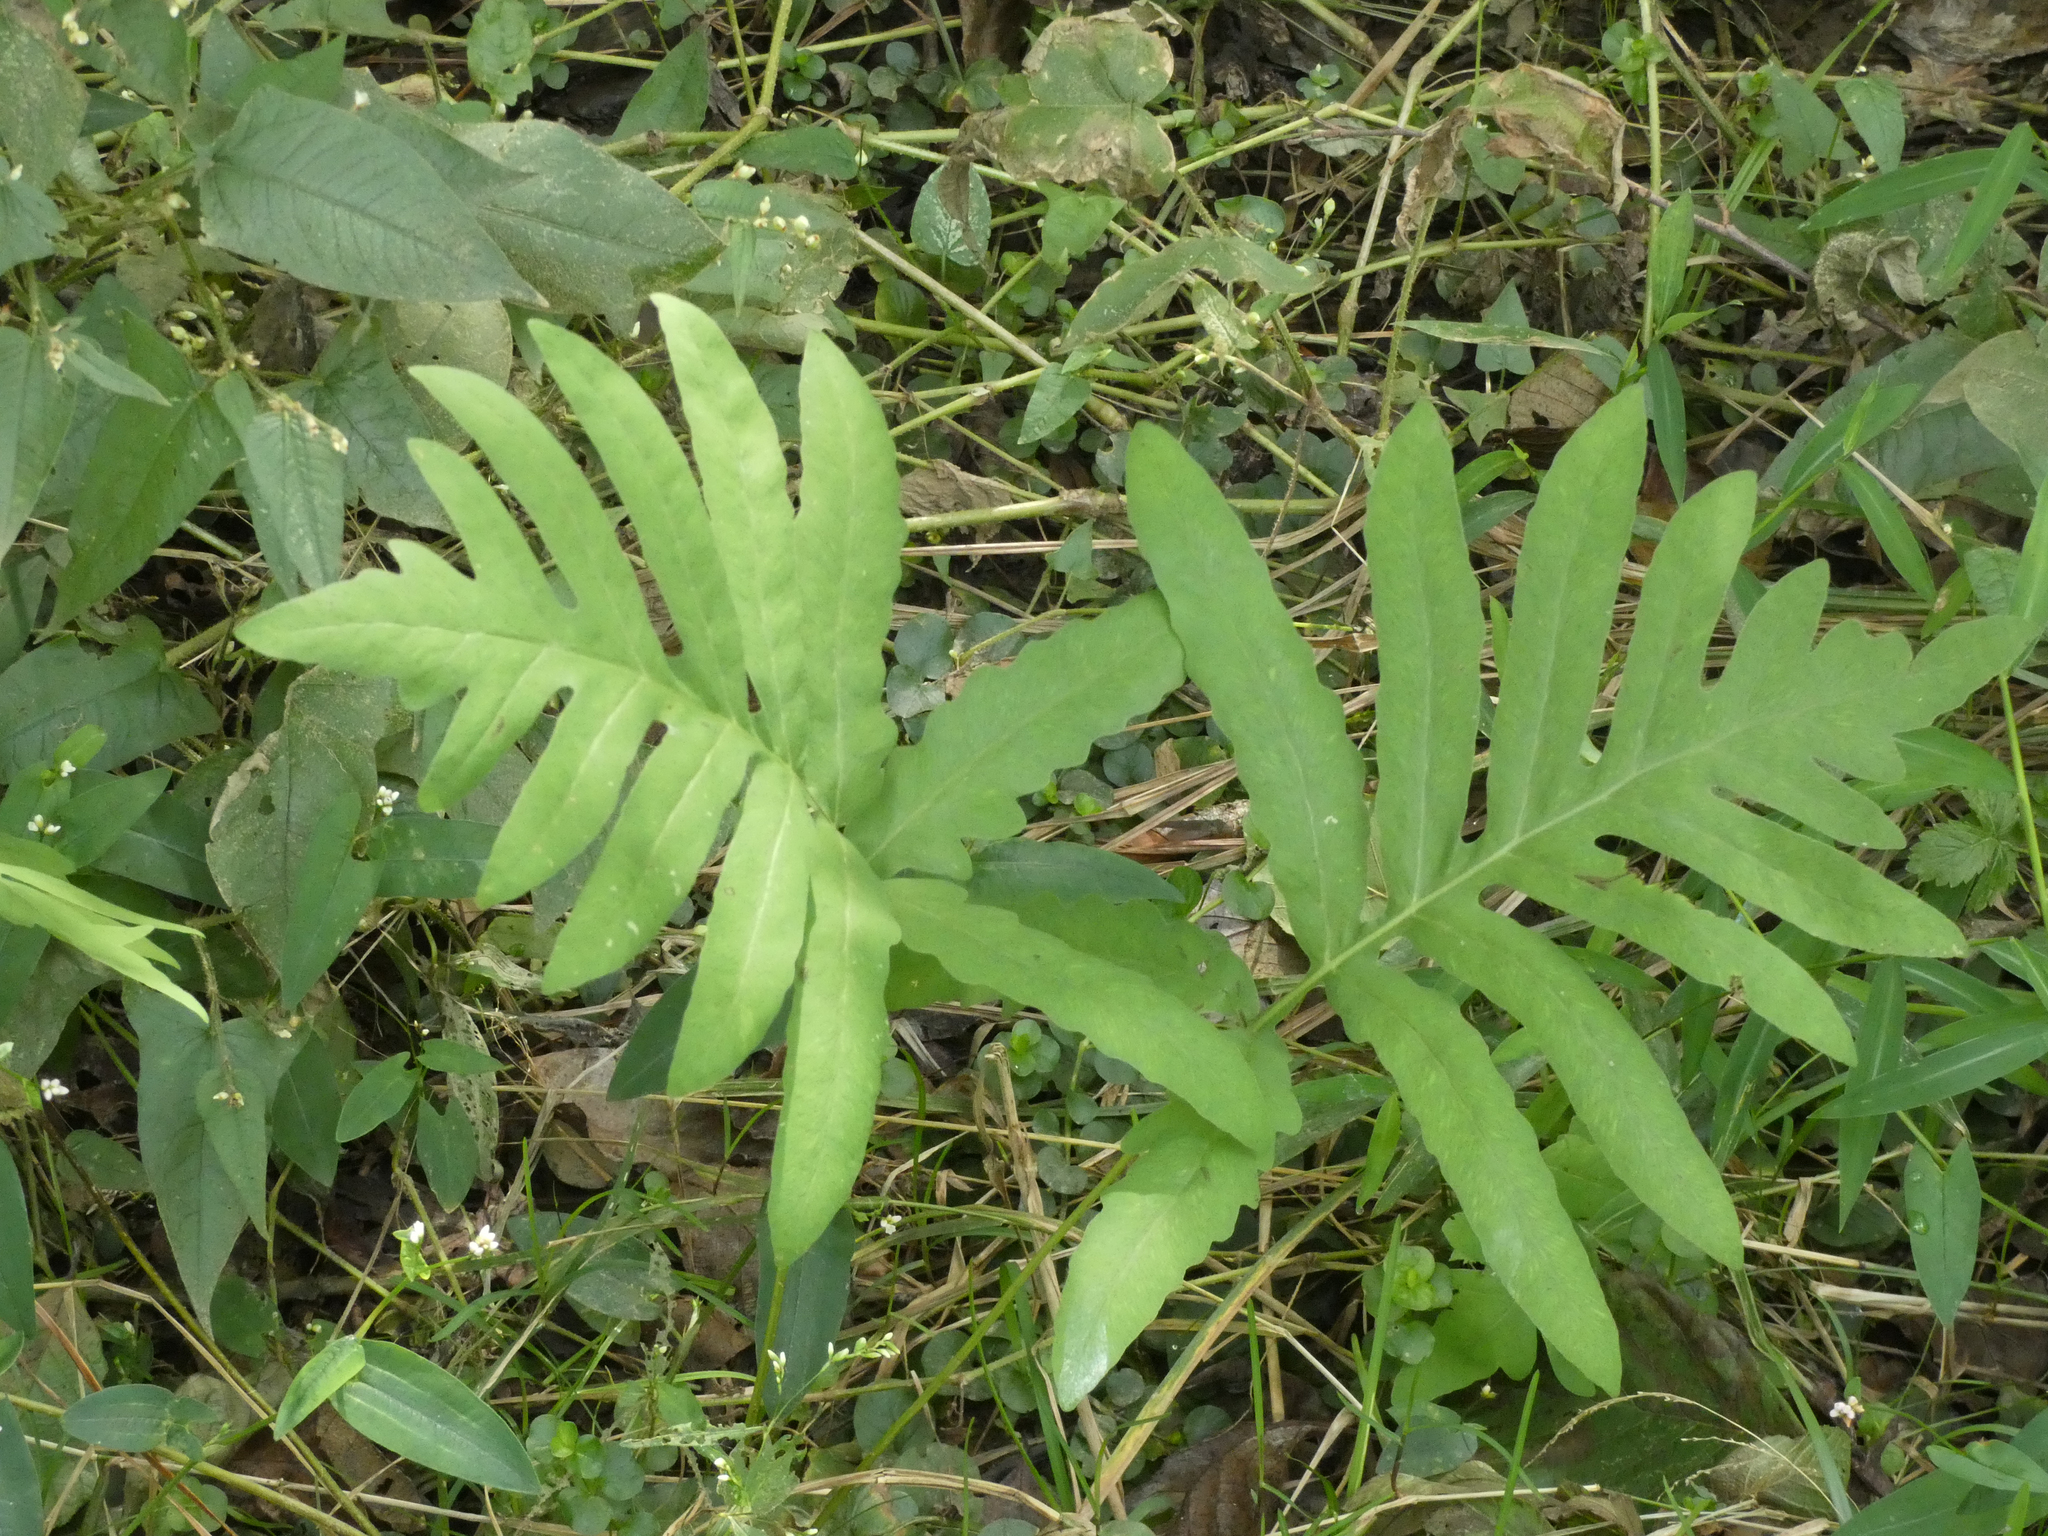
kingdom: Plantae
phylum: Tracheophyta
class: Polypodiopsida
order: Polypodiales
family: Onocleaceae
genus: Onoclea
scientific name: Onoclea sensibilis
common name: Sensitive fern
